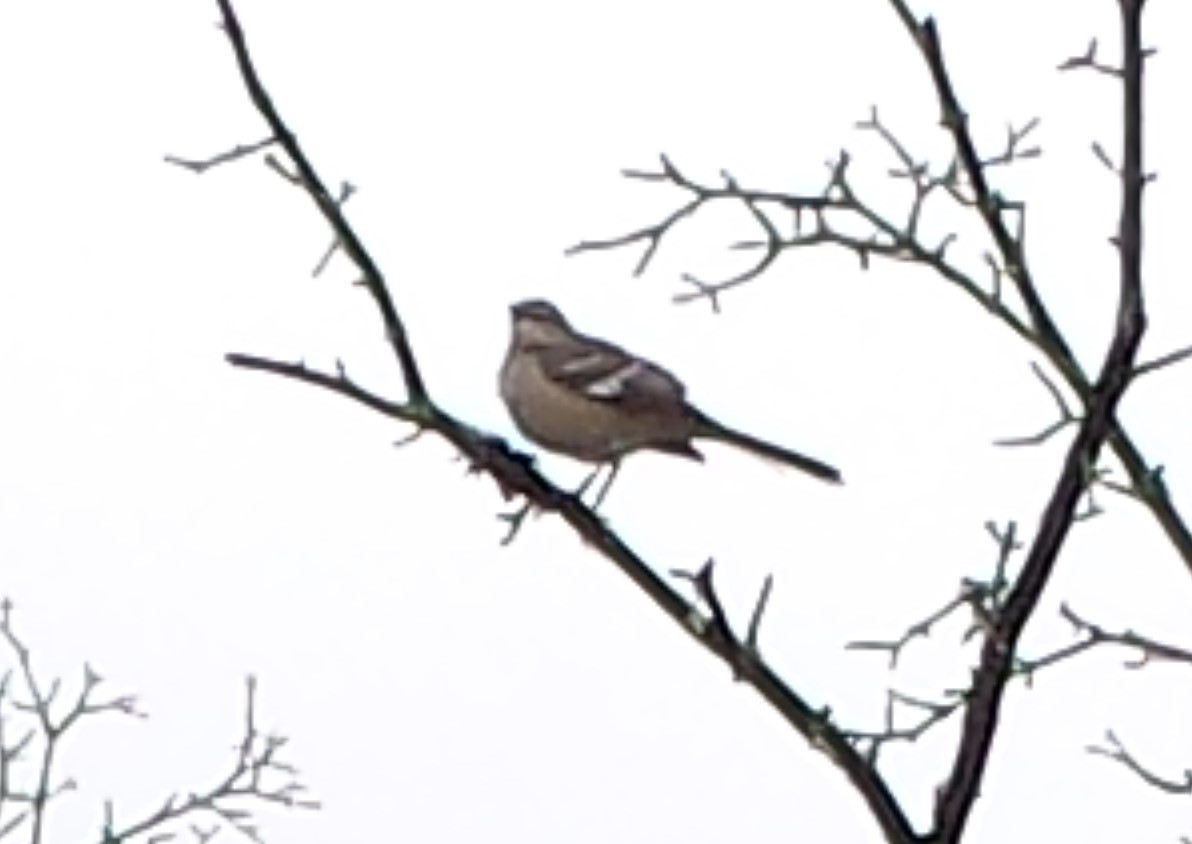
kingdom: Animalia
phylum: Chordata
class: Aves
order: Passeriformes
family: Mimidae
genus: Mimus
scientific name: Mimus polyglottos
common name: Northern mockingbird
